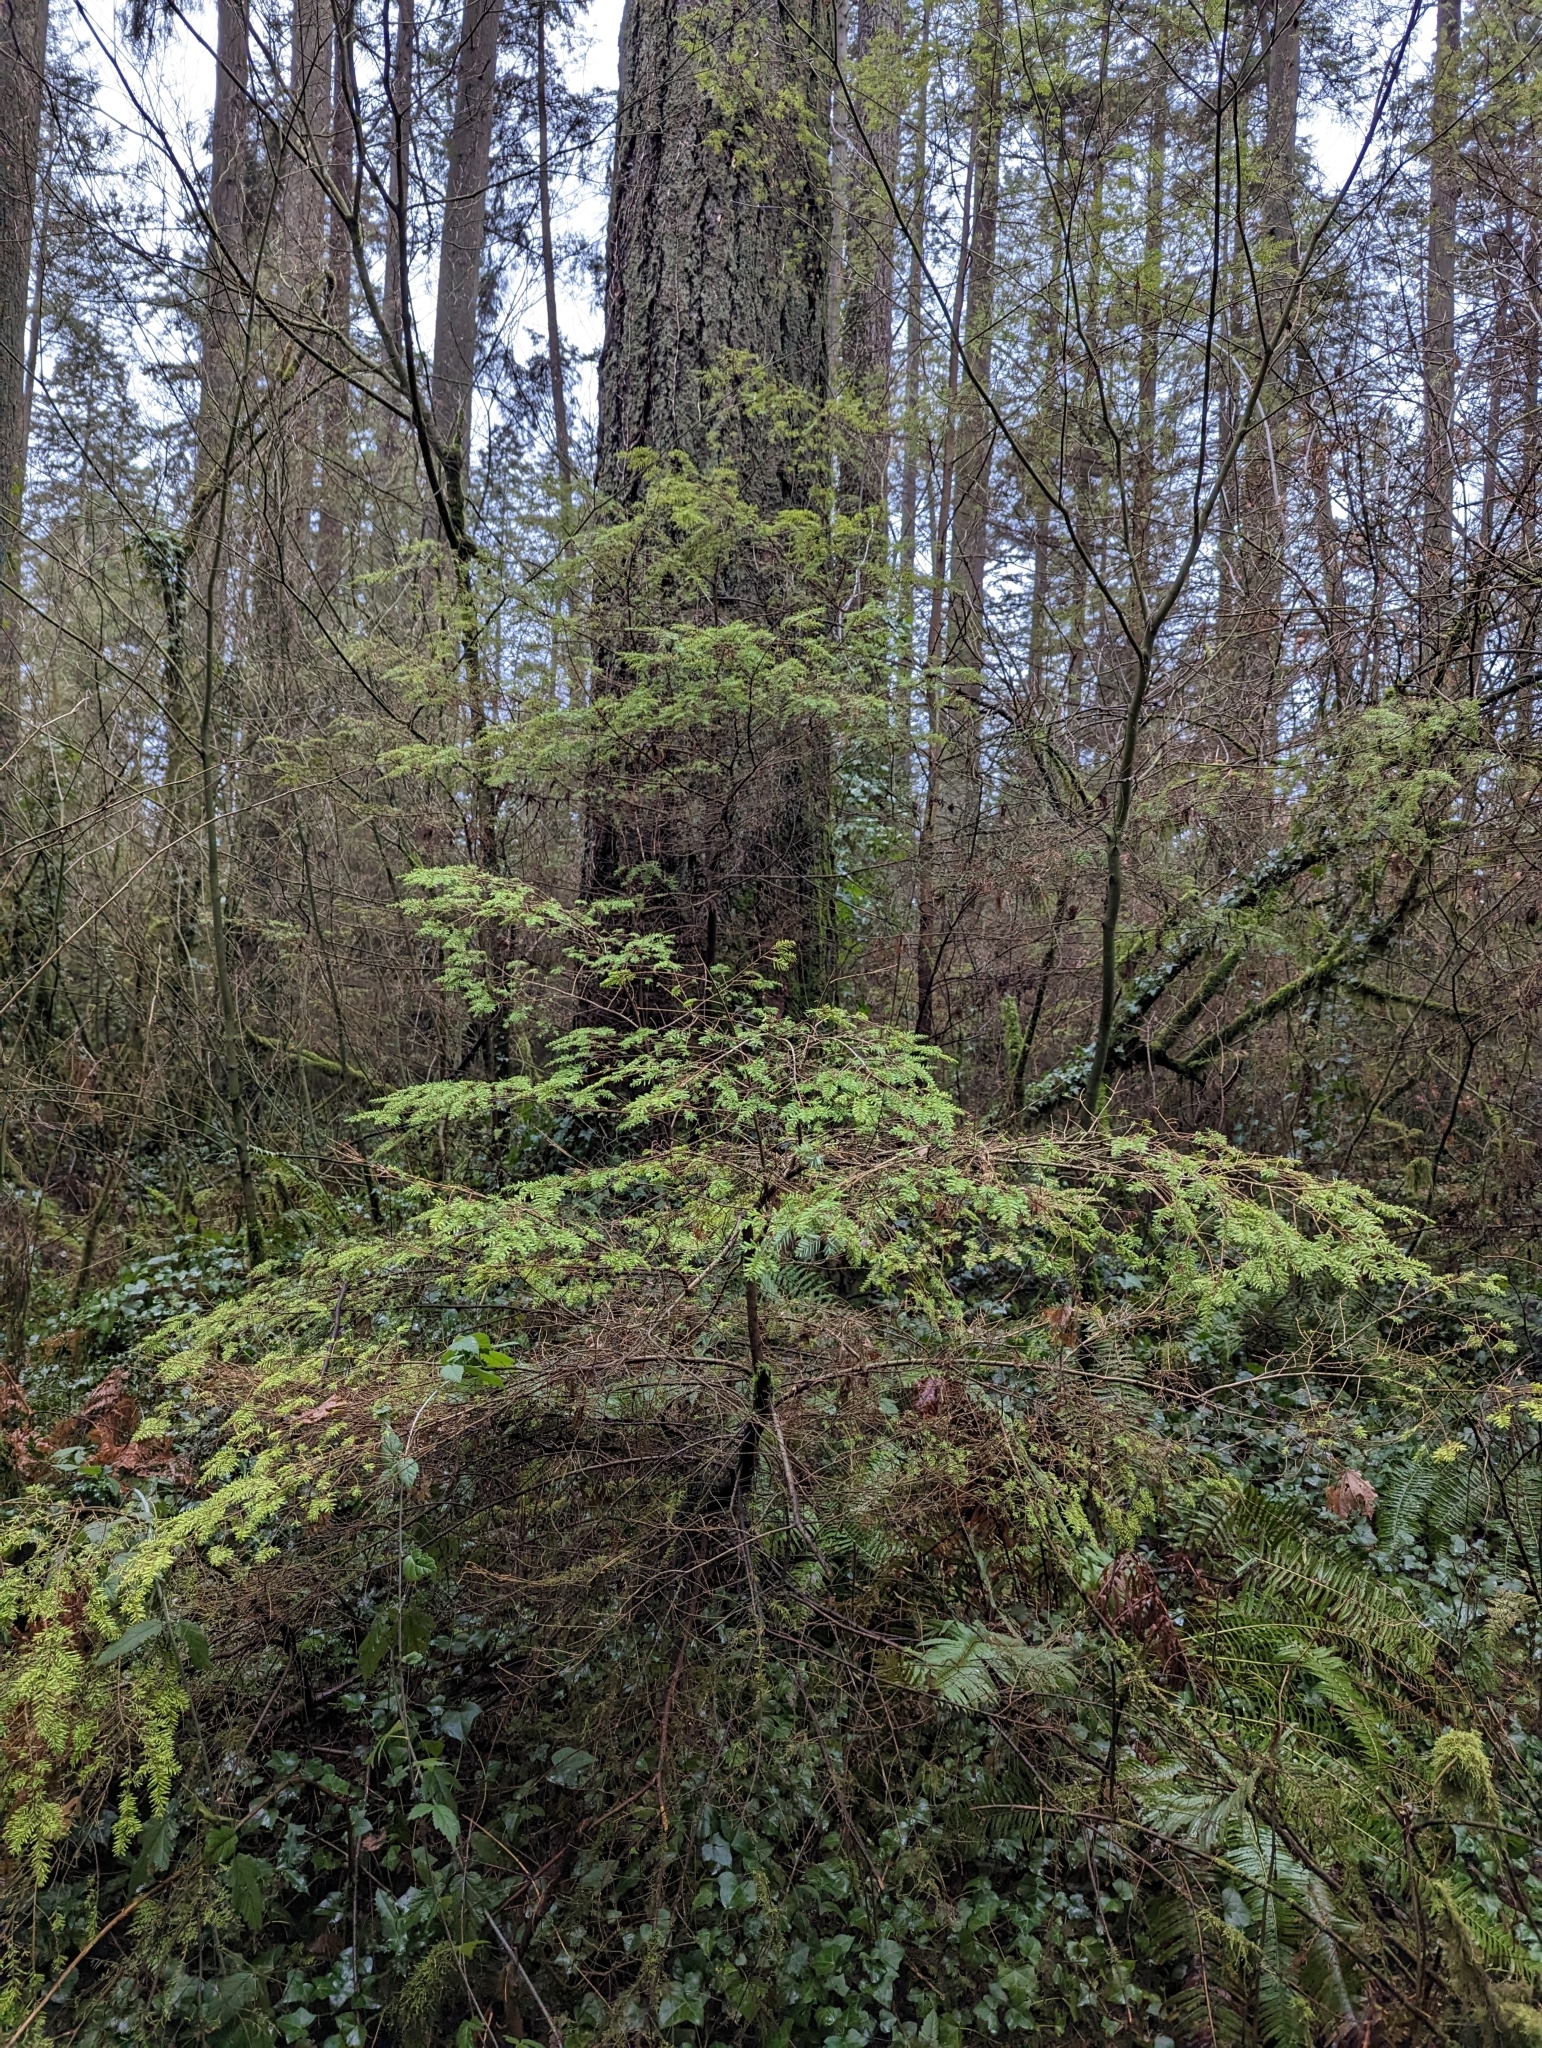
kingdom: Plantae
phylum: Tracheophyta
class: Pinopsida
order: Pinales
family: Pinaceae
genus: Tsuga
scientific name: Tsuga heterophylla
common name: Western hemlock
